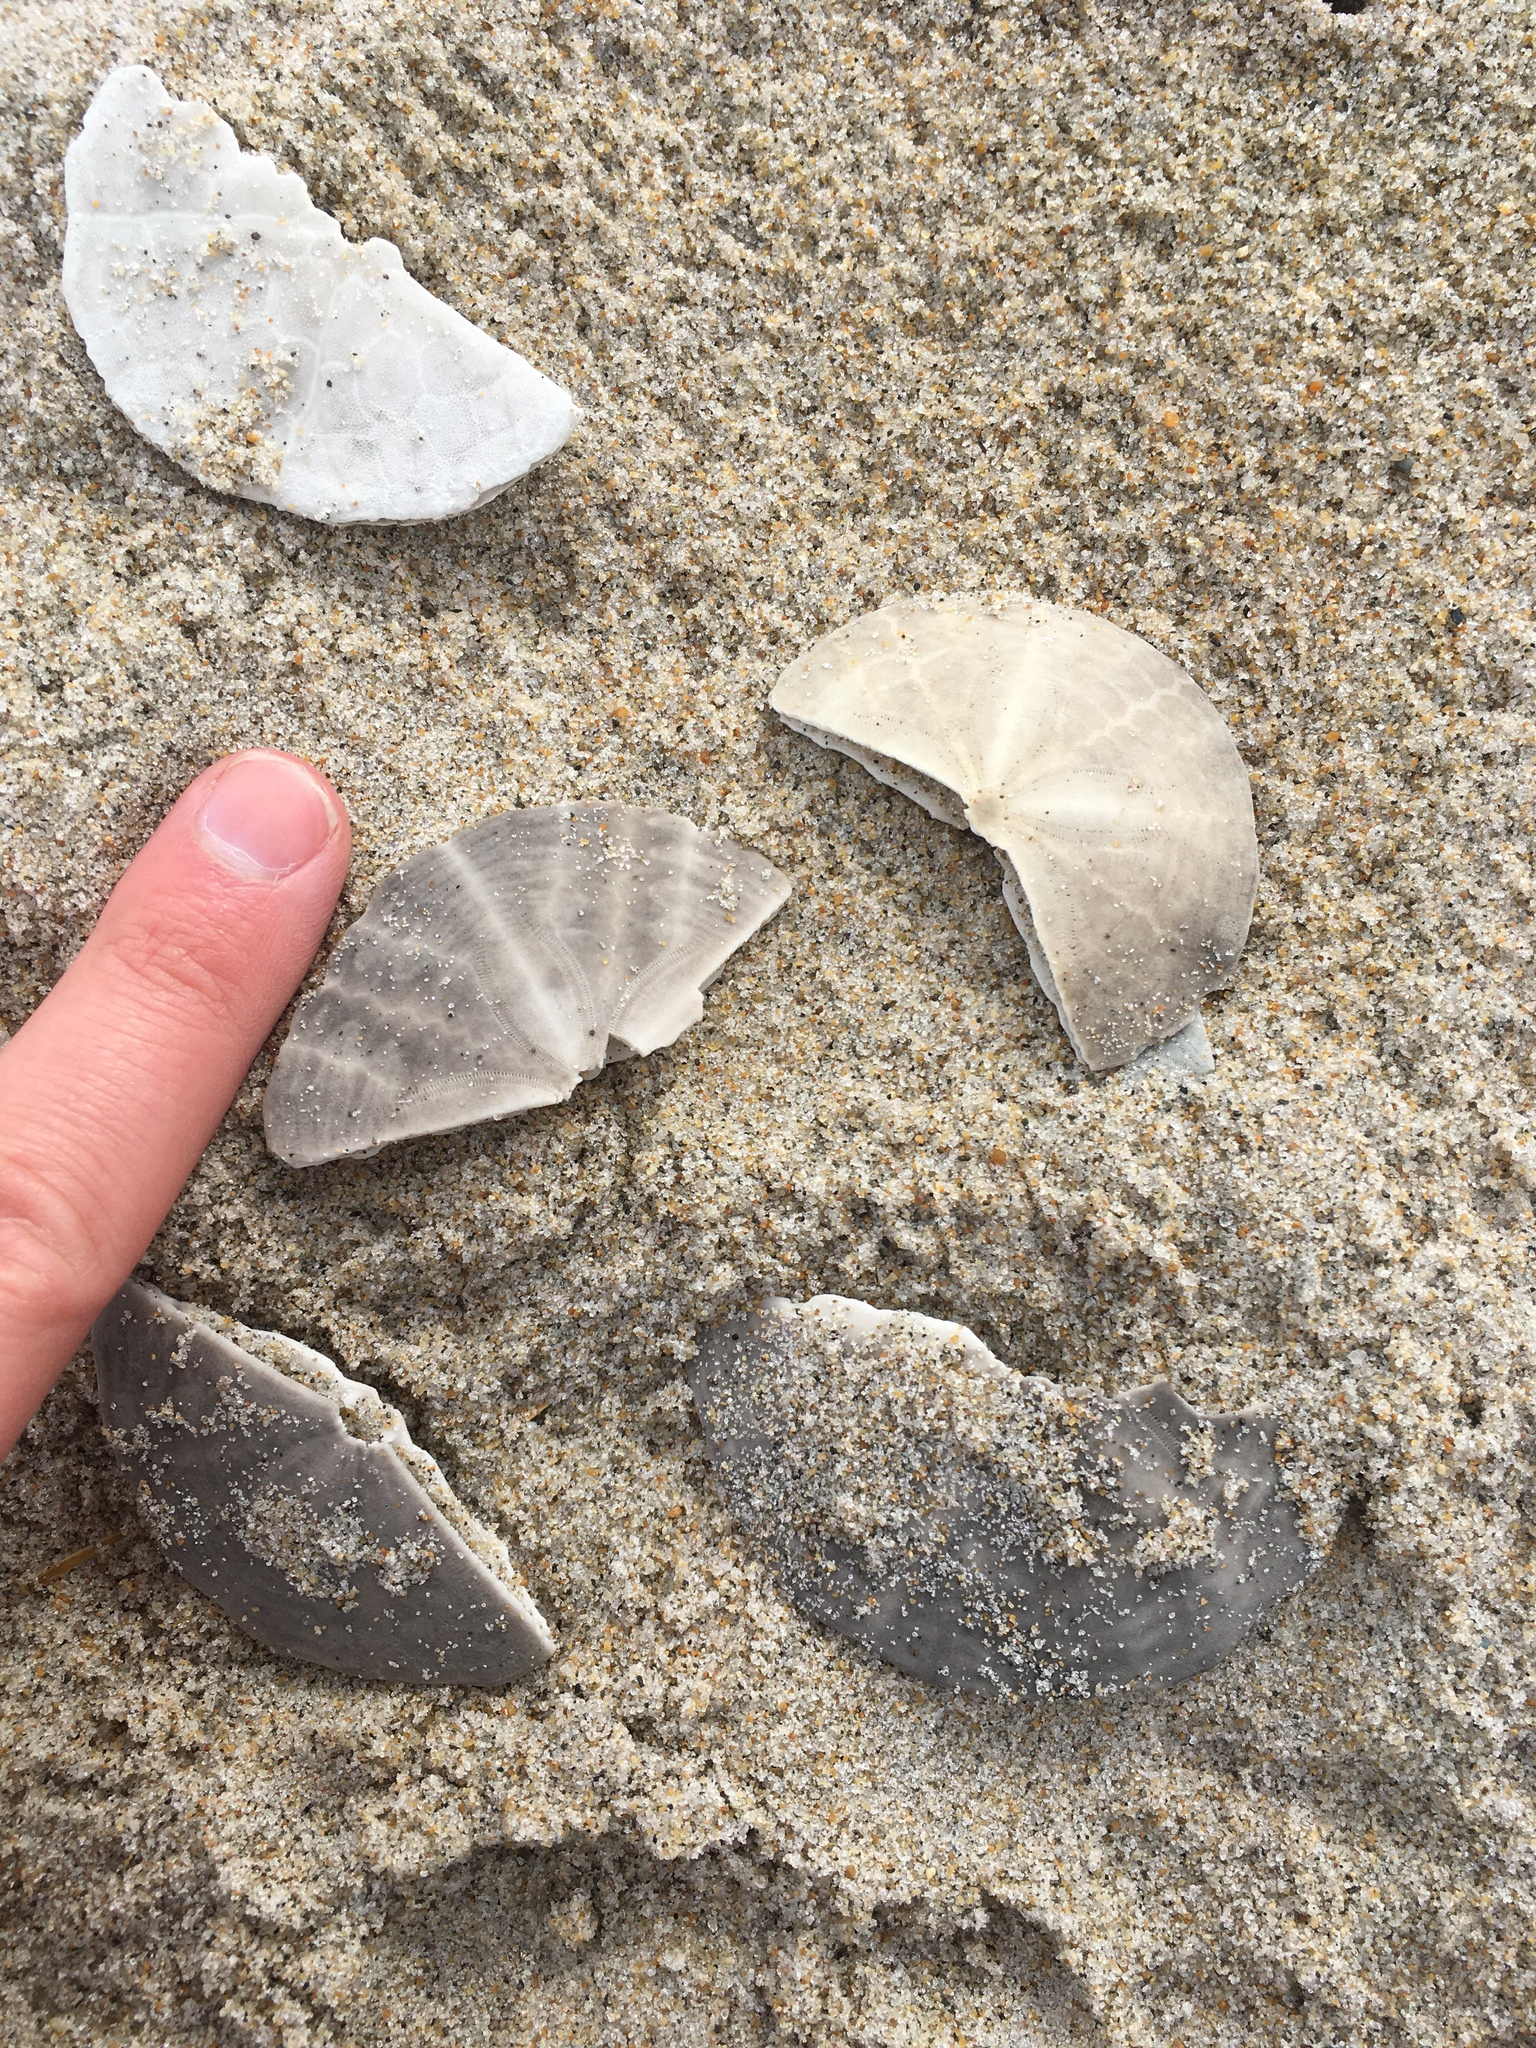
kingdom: Animalia
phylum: Echinodermata
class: Echinoidea
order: Echinolampadacea
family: Echinarachniidae
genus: Echinarachnius
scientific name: Echinarachnius parma
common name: Common sand dollar
